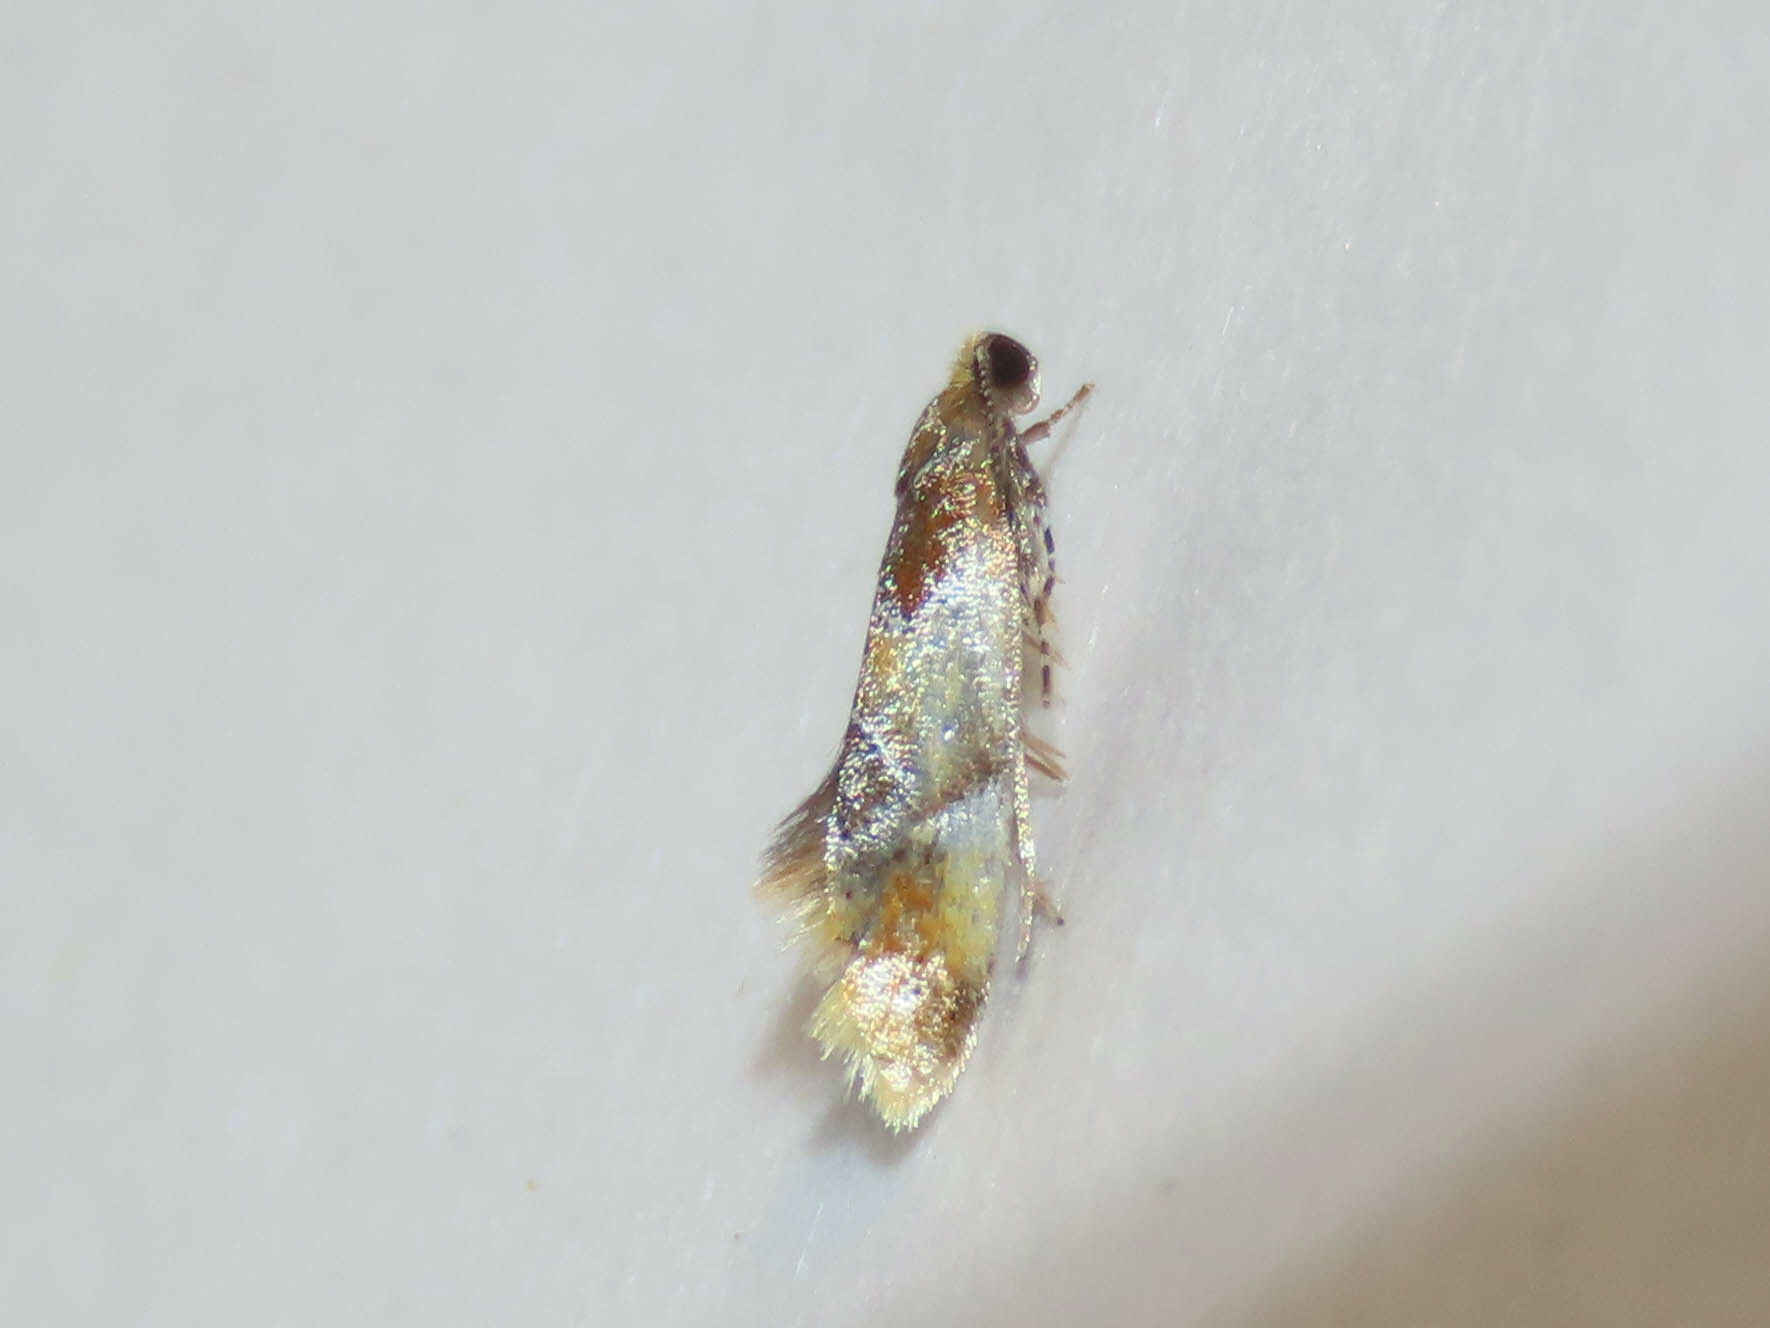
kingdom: Animalia
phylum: Arthropoda
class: Insecta
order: Lepidoptera
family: Oecophoridae
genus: Callima
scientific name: Callima argenticinctella
